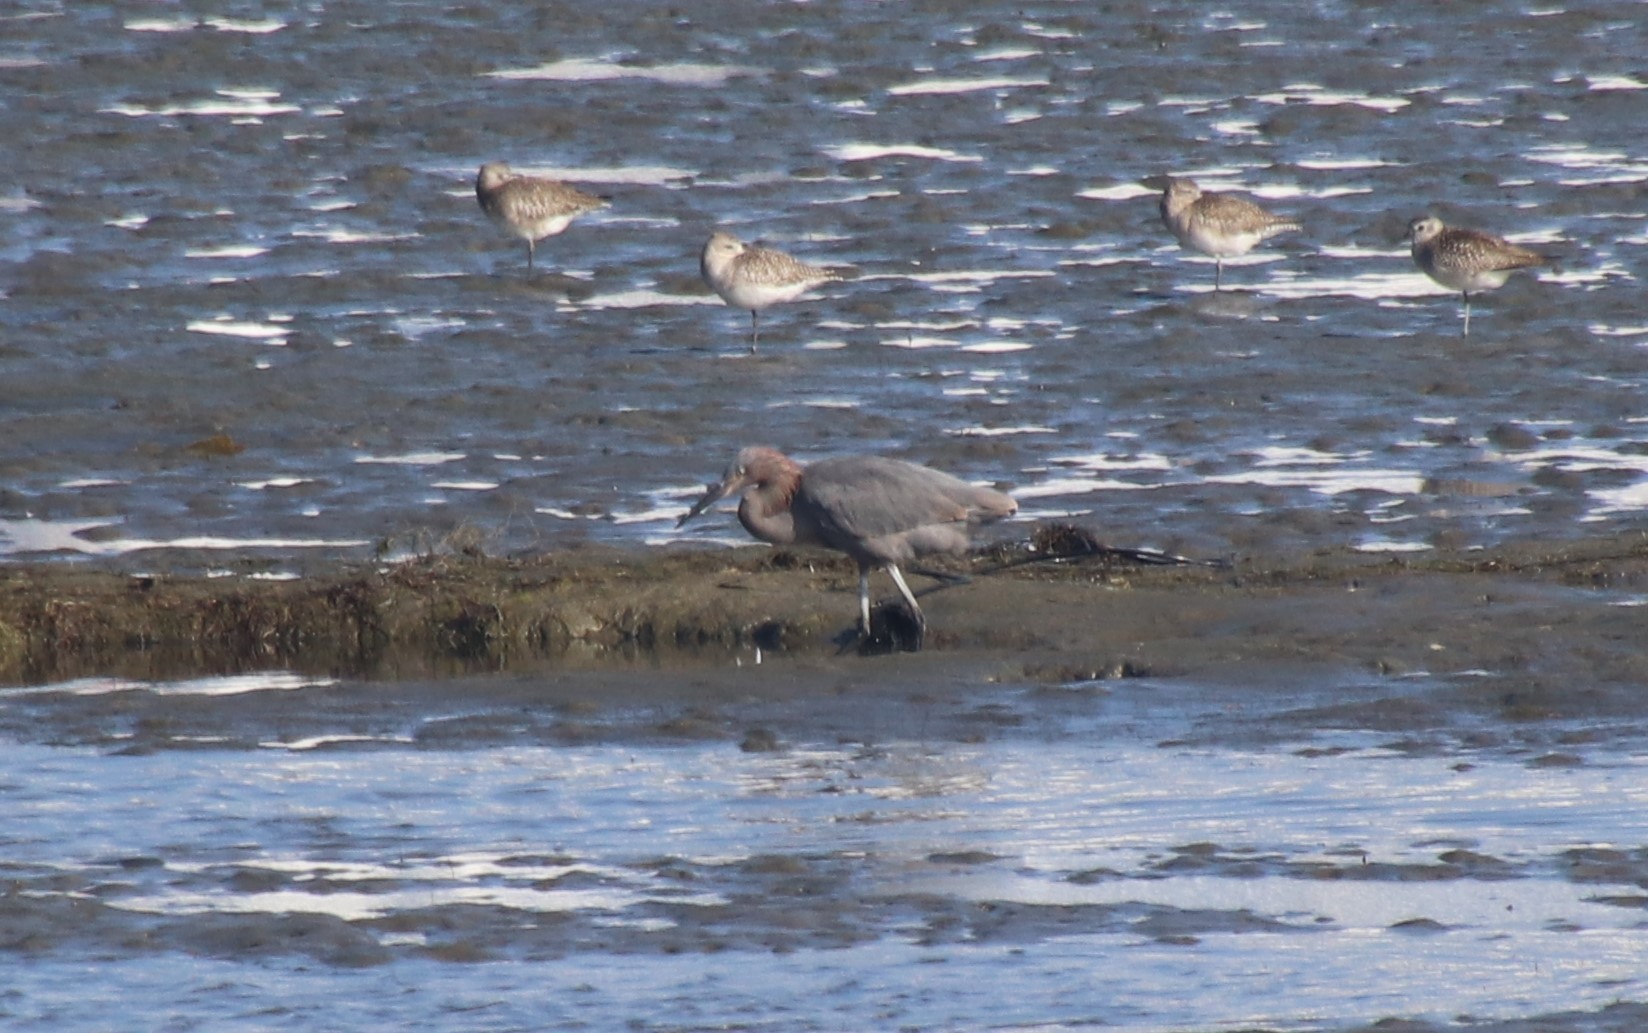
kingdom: Animalia
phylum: Chordata
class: Aves
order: Pelecaniformes
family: Ardeidae
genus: Egretta
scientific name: Egretta rufescens
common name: Reddish egret
